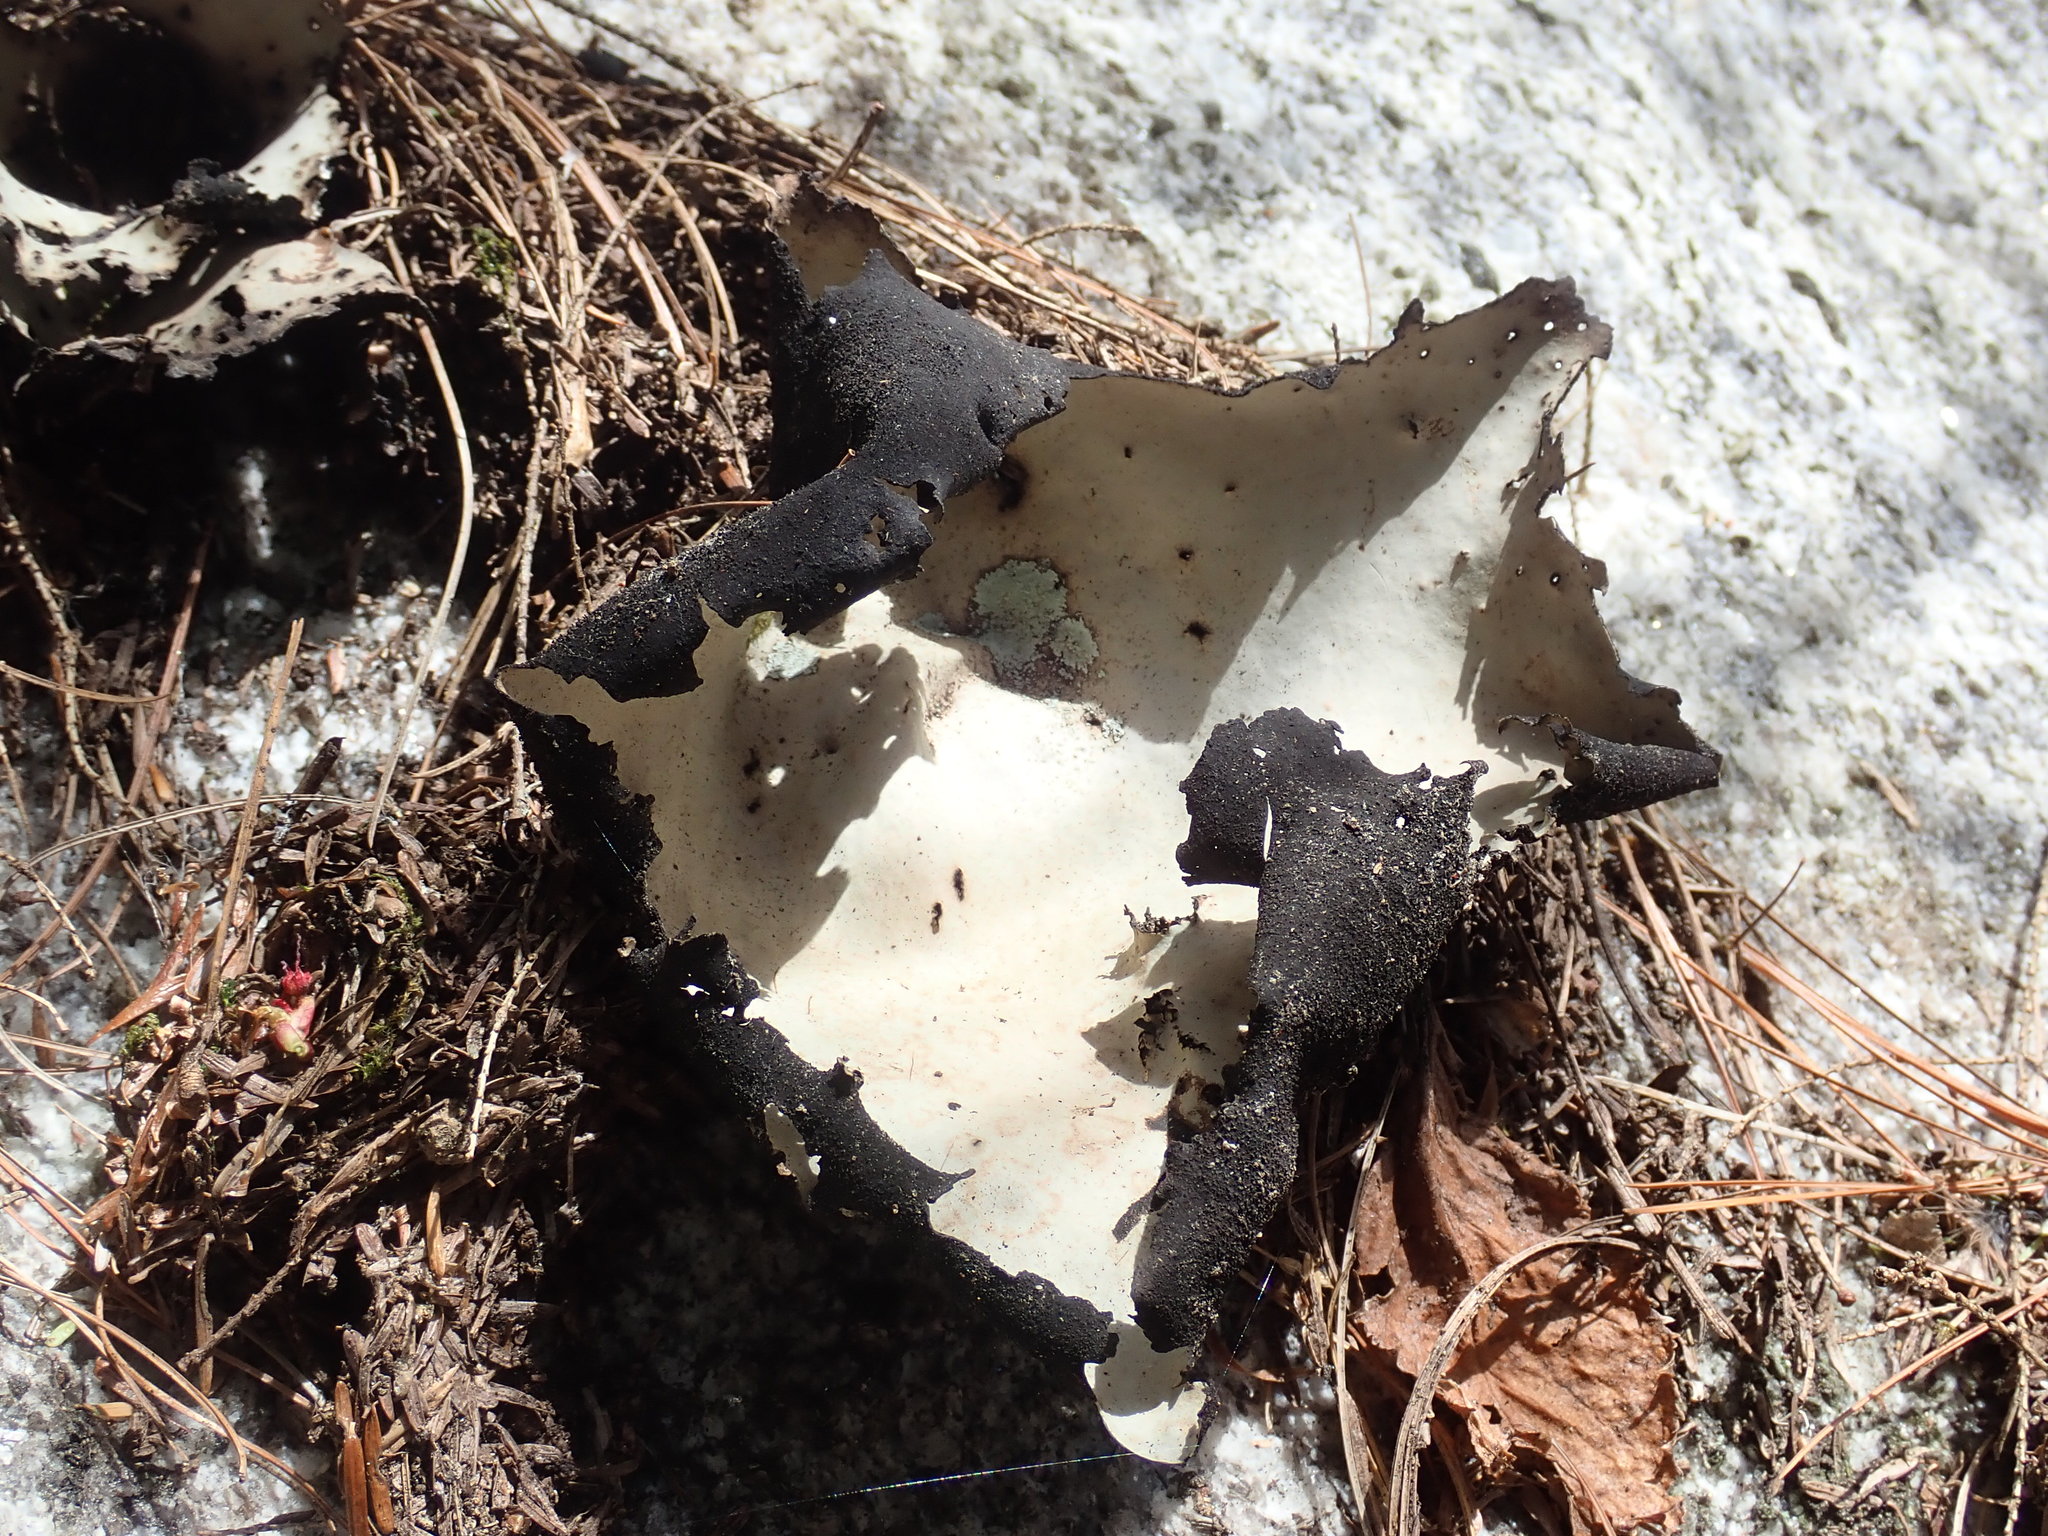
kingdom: Fungi
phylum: Ascomycota
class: Lecanoromycetes
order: Umbilicariales
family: Umbilicariaceae
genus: Umbilicaria
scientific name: Umbilicaria mammulata
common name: Smooth rock tripe
